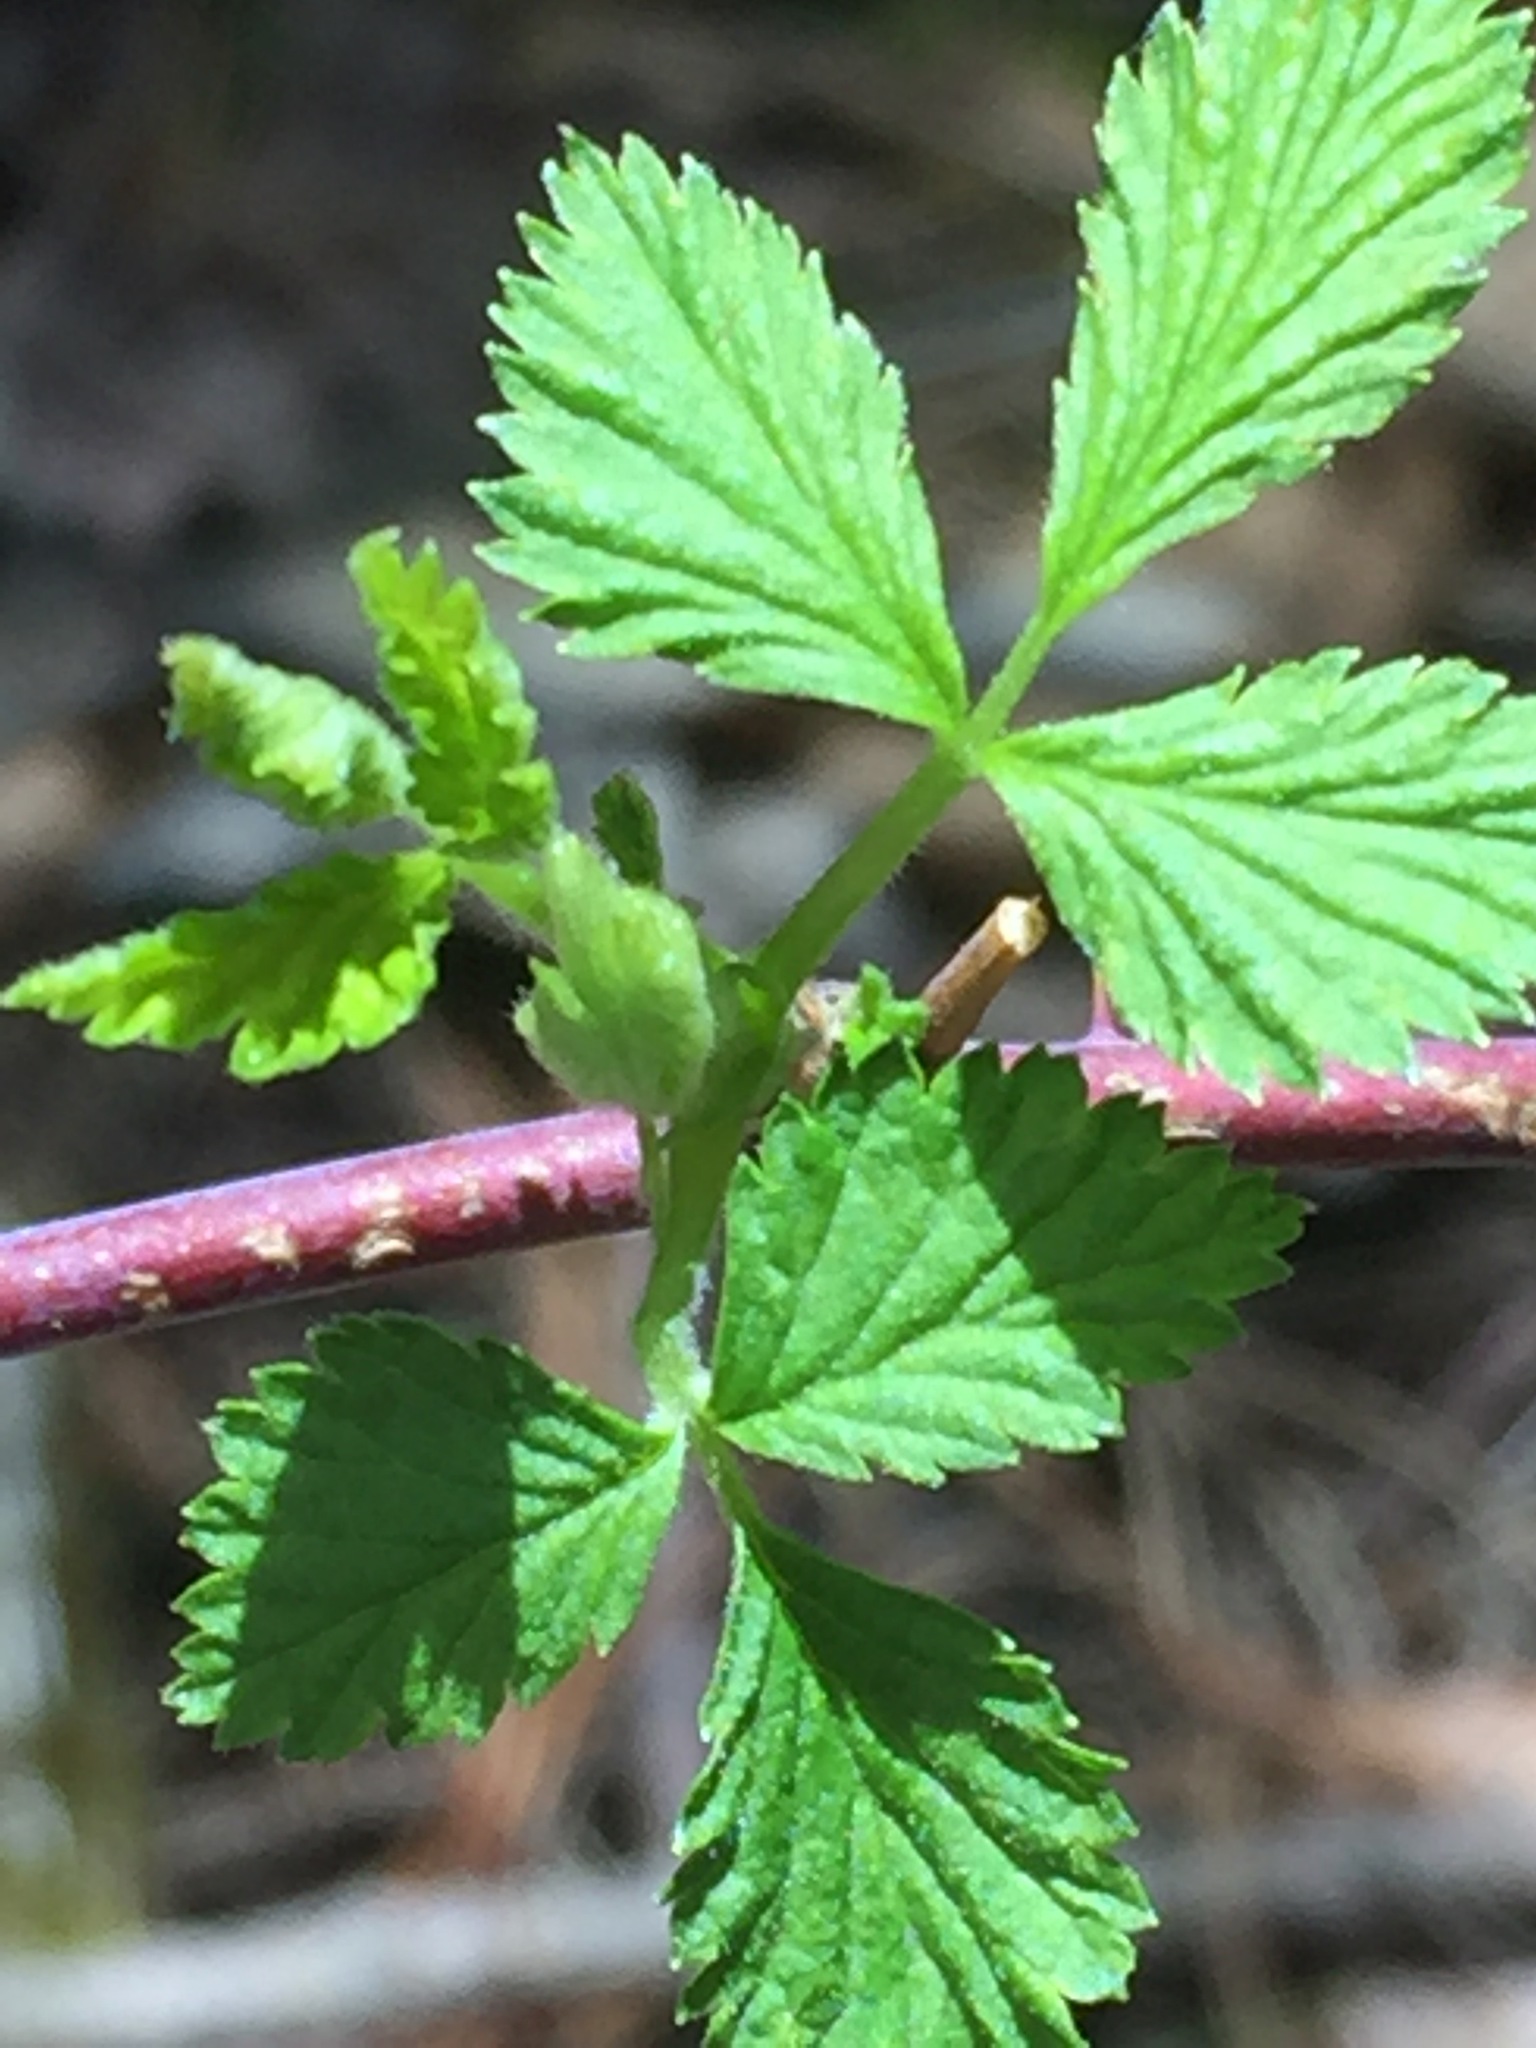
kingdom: Plantae
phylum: Tracheophyta
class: Magnoliopsida
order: Rosales
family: Rosaceae
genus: Rubus
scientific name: Rubus occidentalis
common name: Black raspberry
